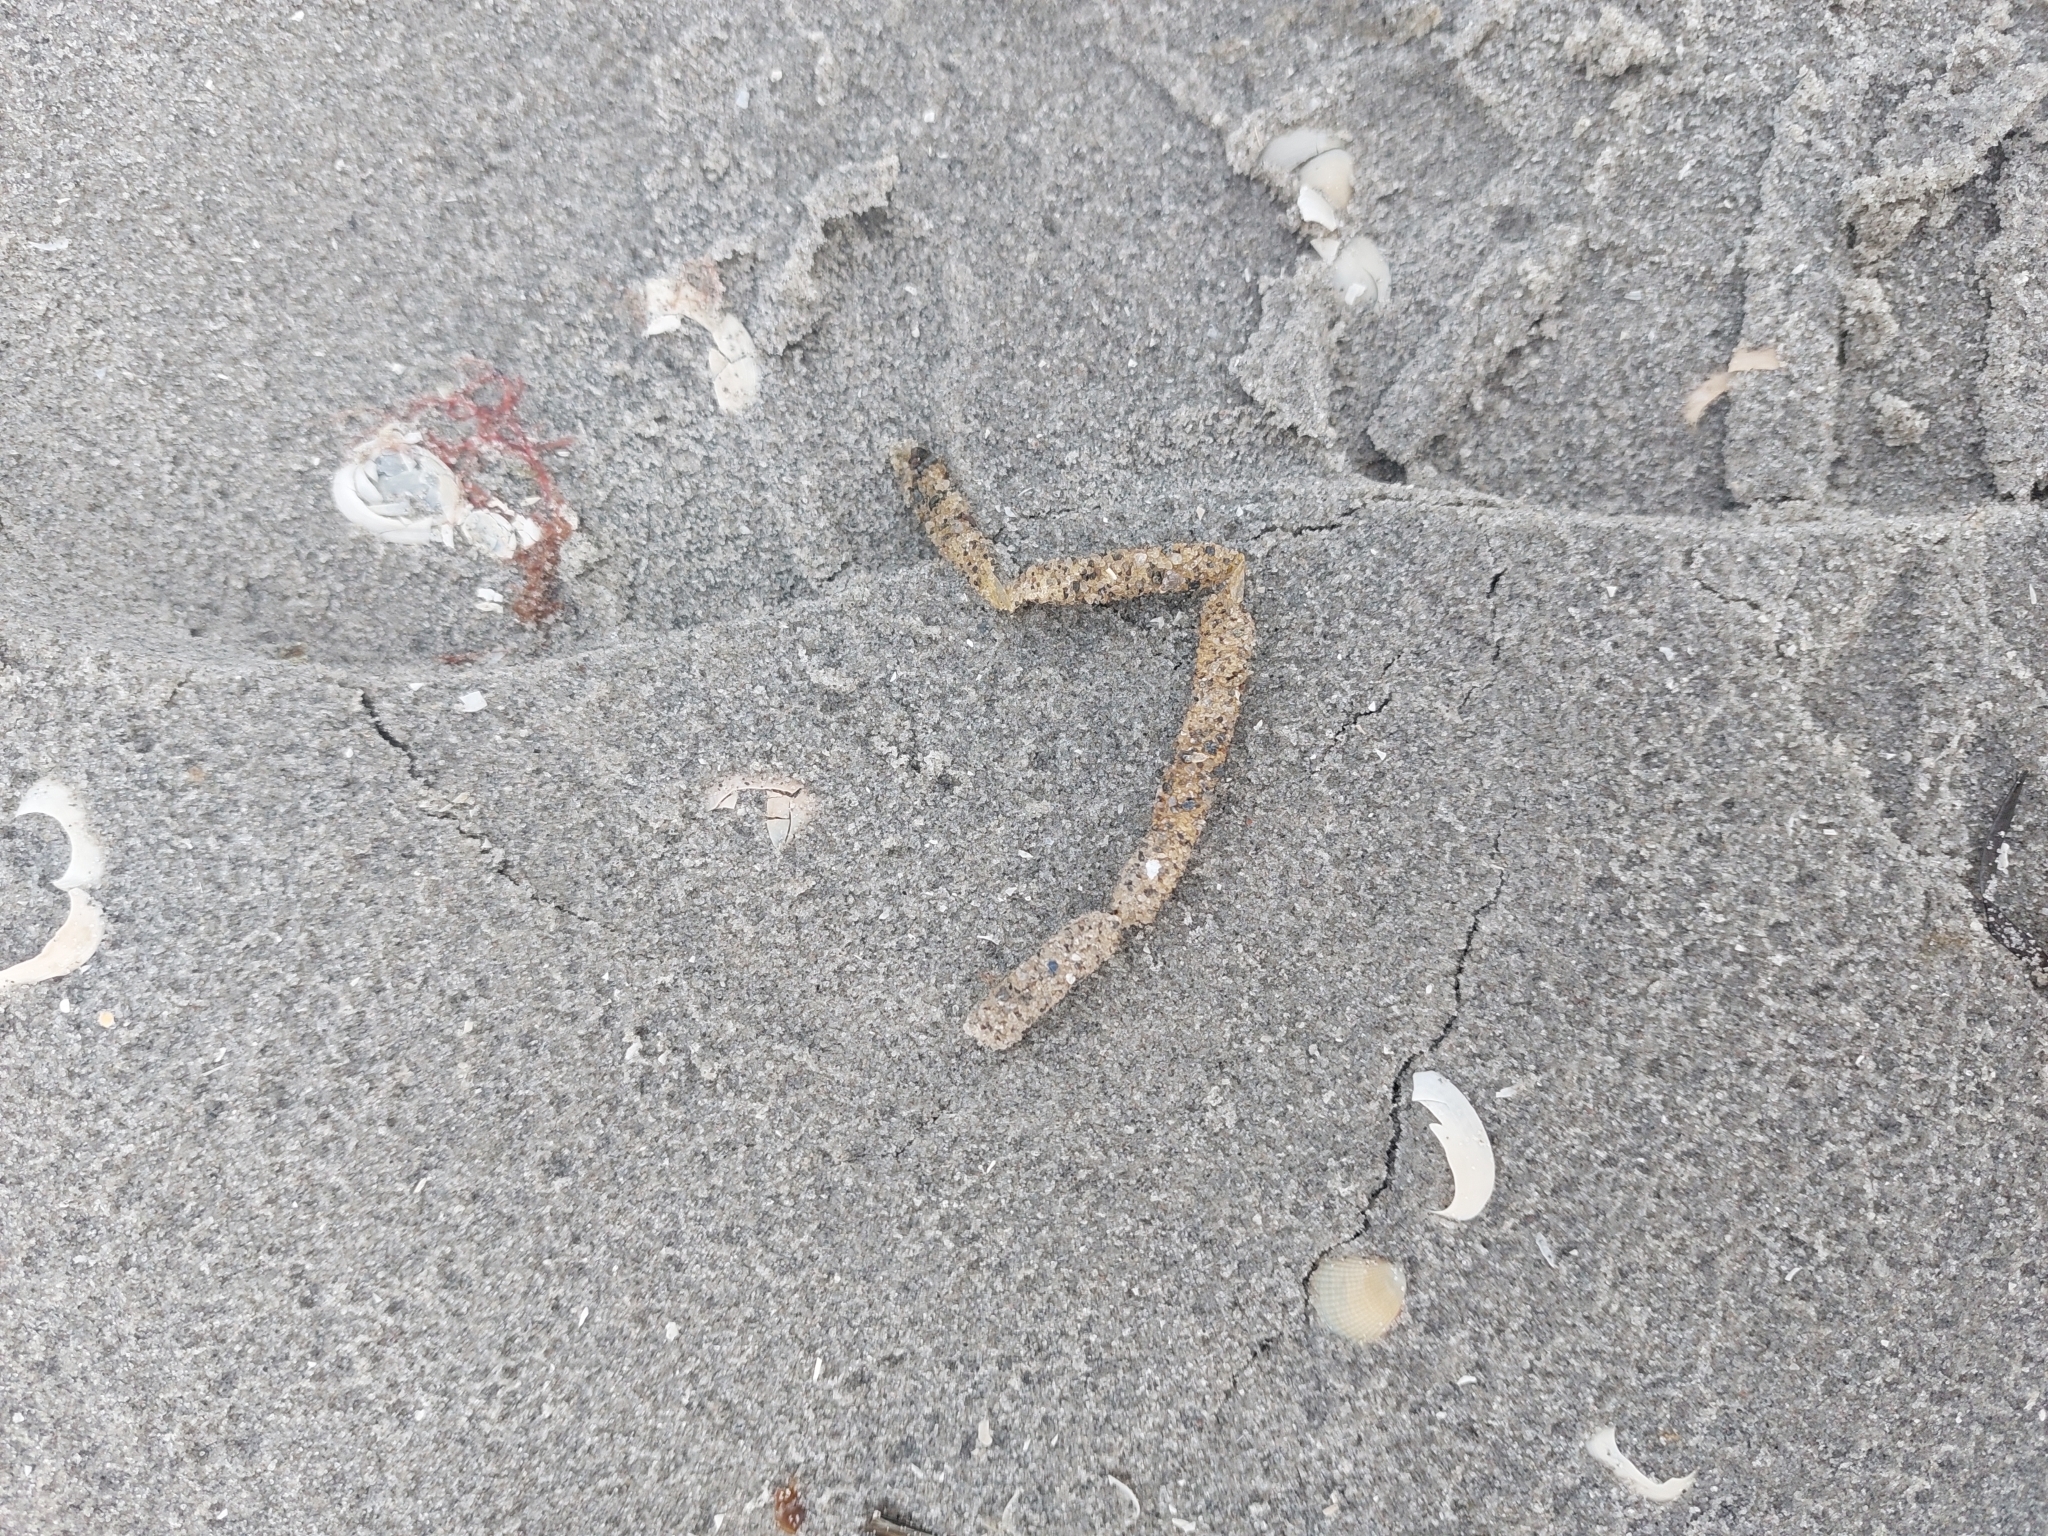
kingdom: Animalia
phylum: Annelida
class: Polychaeta
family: Terebellidae
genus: Lanice
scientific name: Lanice conchilega
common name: Sand mason
